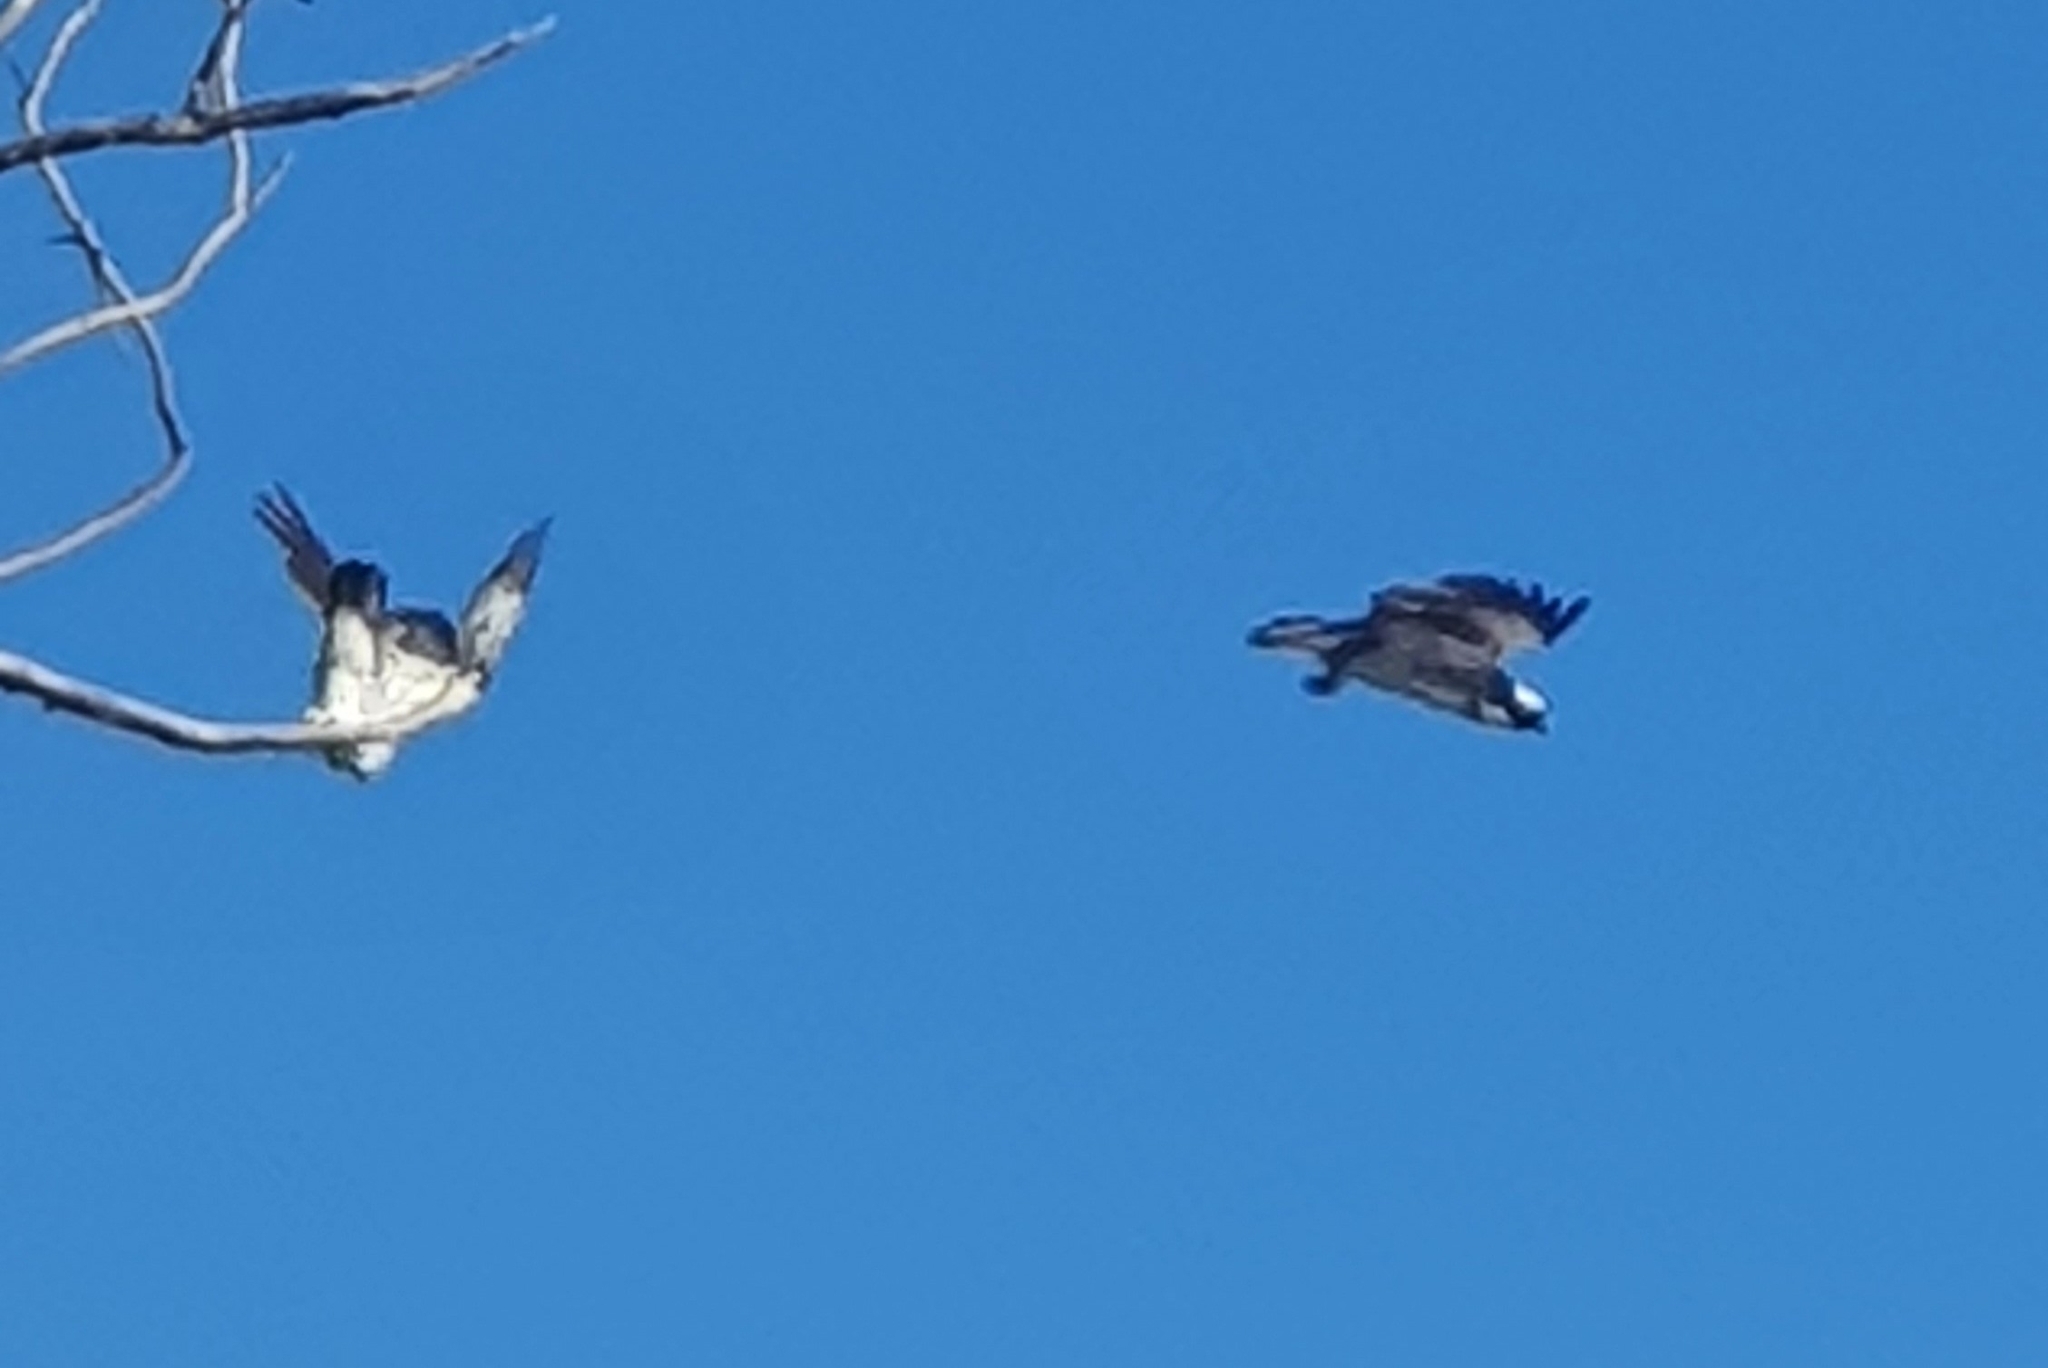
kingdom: Animalia
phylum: Chordata
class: Aves
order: Accipitriformes
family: Pandionidae
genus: Pandion
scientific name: Pandion cristatus
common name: Eastern osprey
